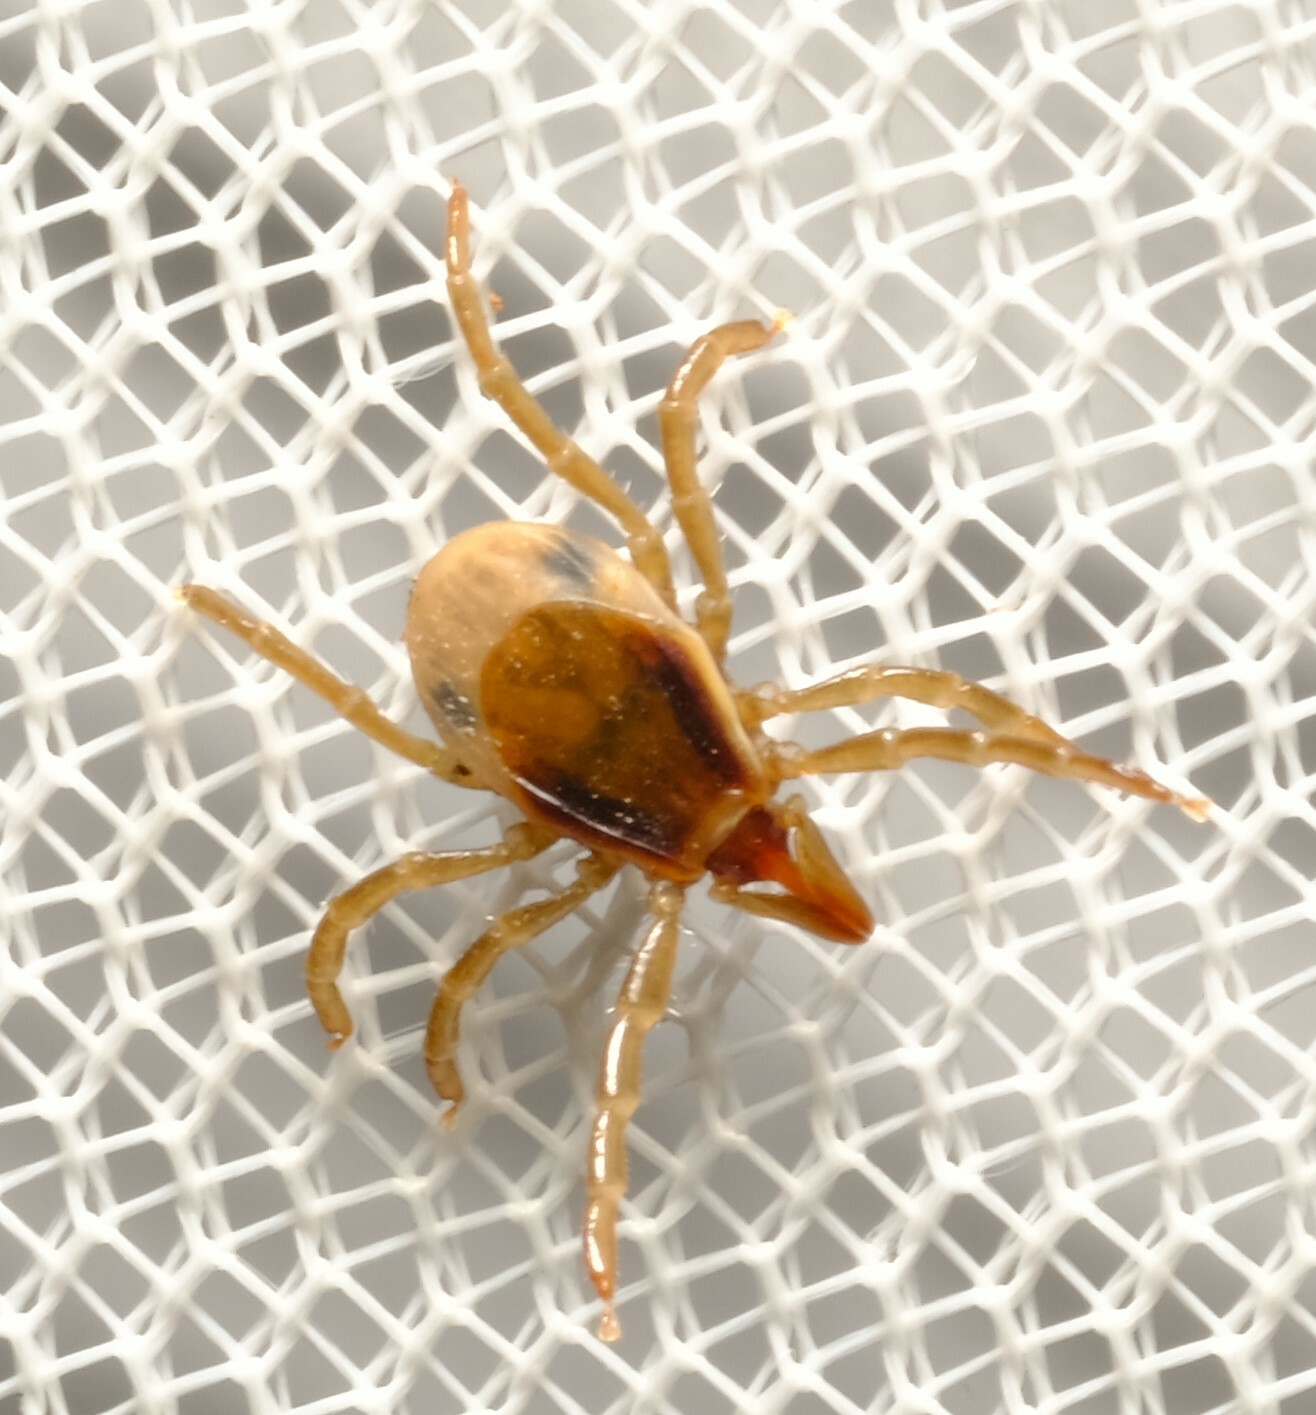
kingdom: Animalia
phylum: Arthropoda
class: Arachnida
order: Ixodida
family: Ixodidae
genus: Ixodes
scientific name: Ixodes cornuatus
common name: Tasmanian paralysis tick
